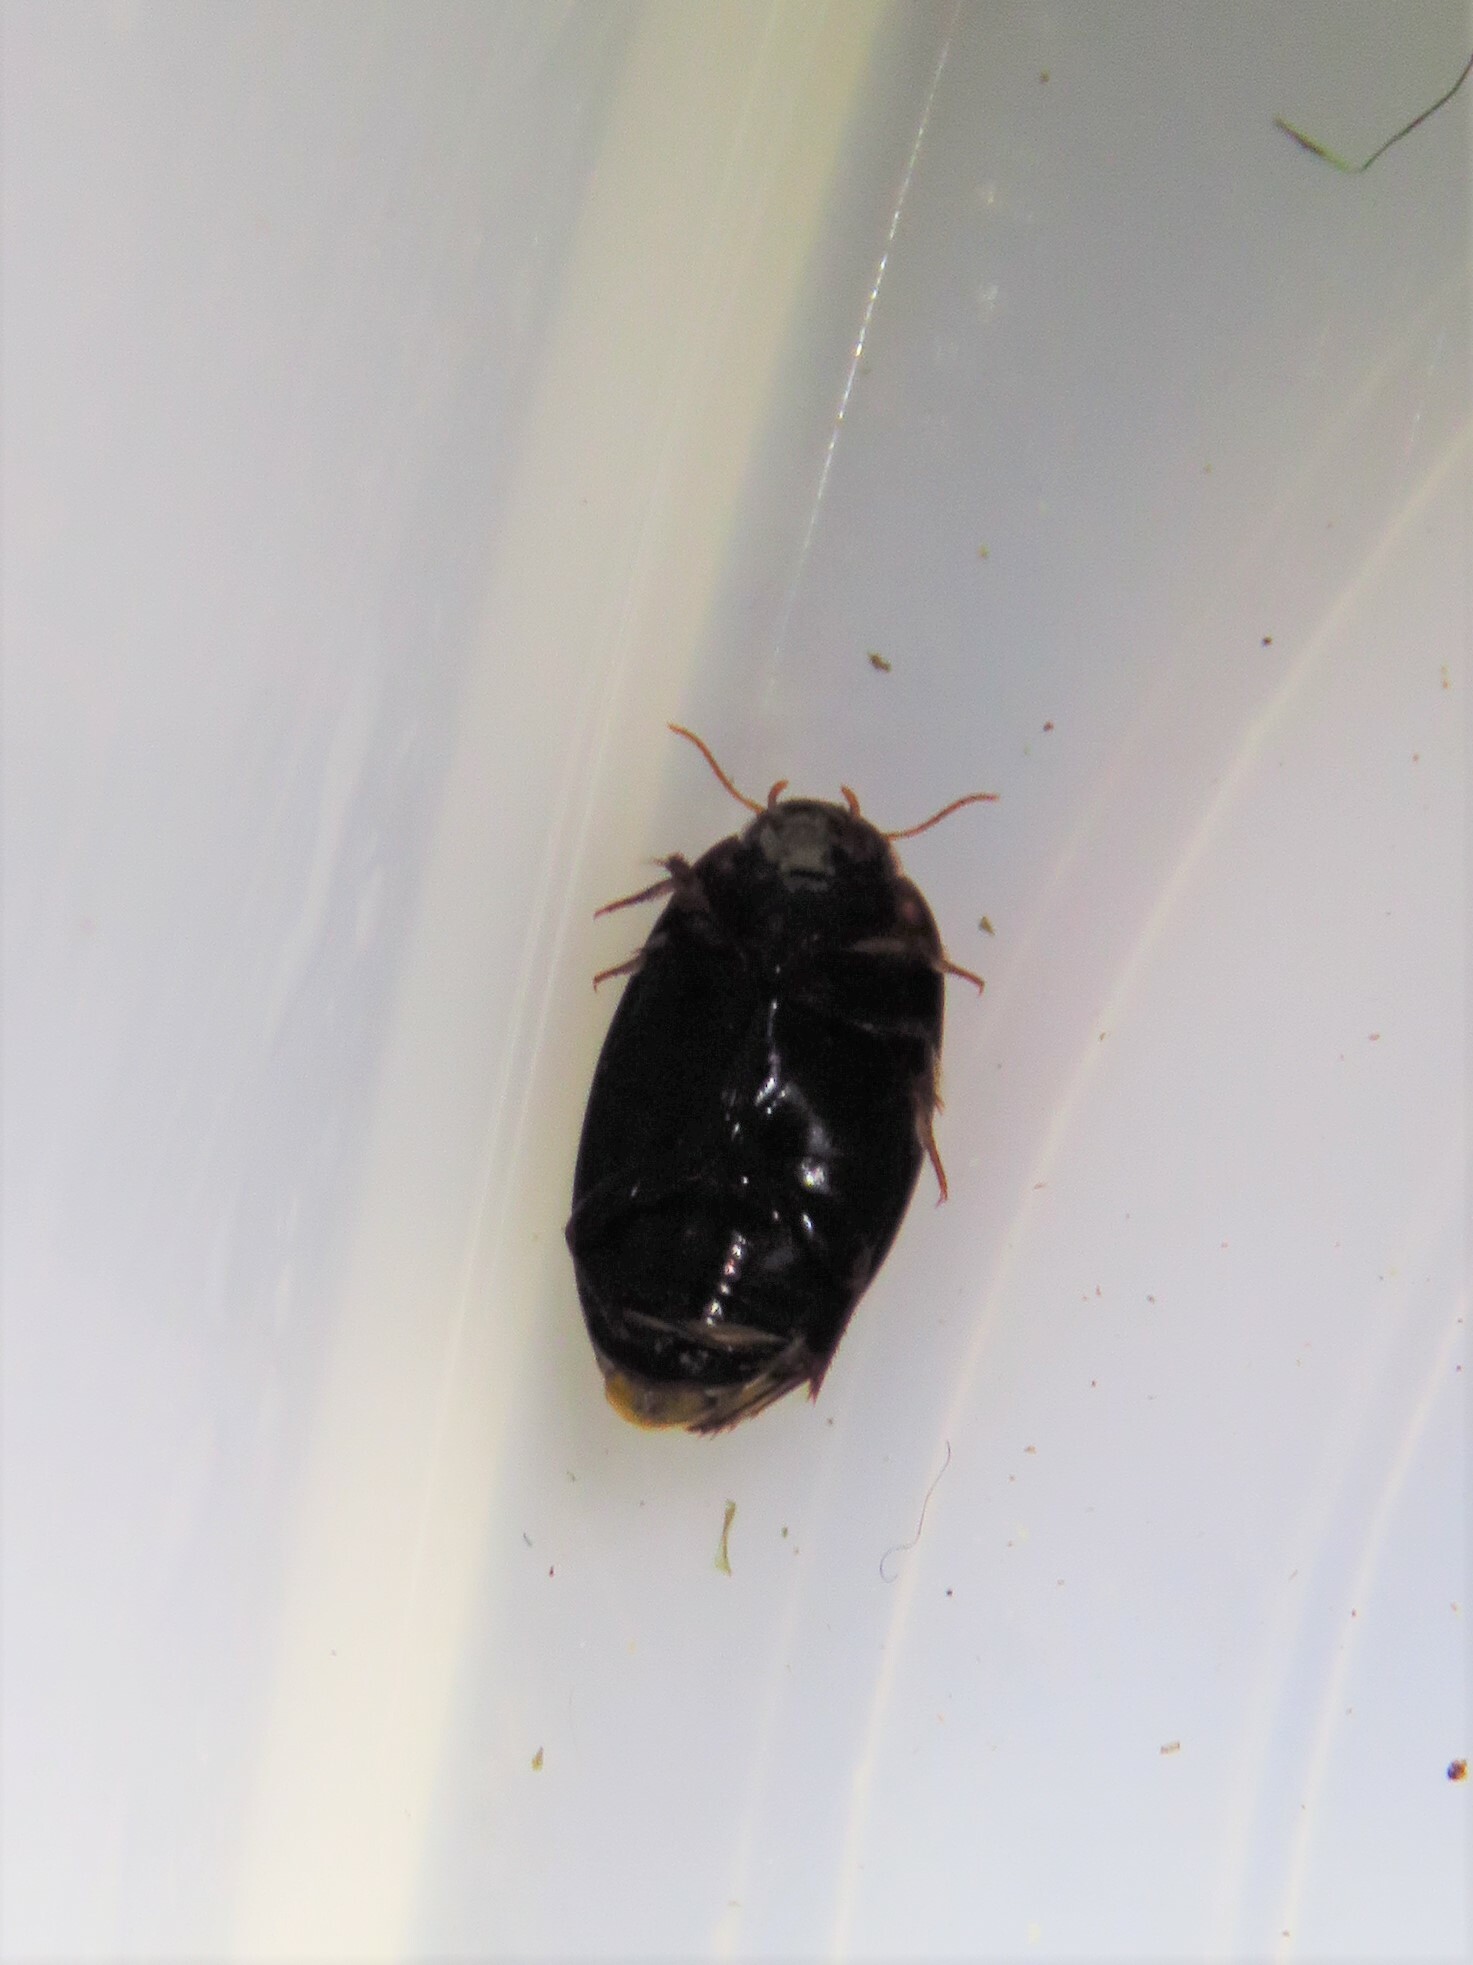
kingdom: Animalia
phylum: Arthropoda
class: Insecta
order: Coleoptera
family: Dytiscidae
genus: Platambus
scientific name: Platambus semivittatus
